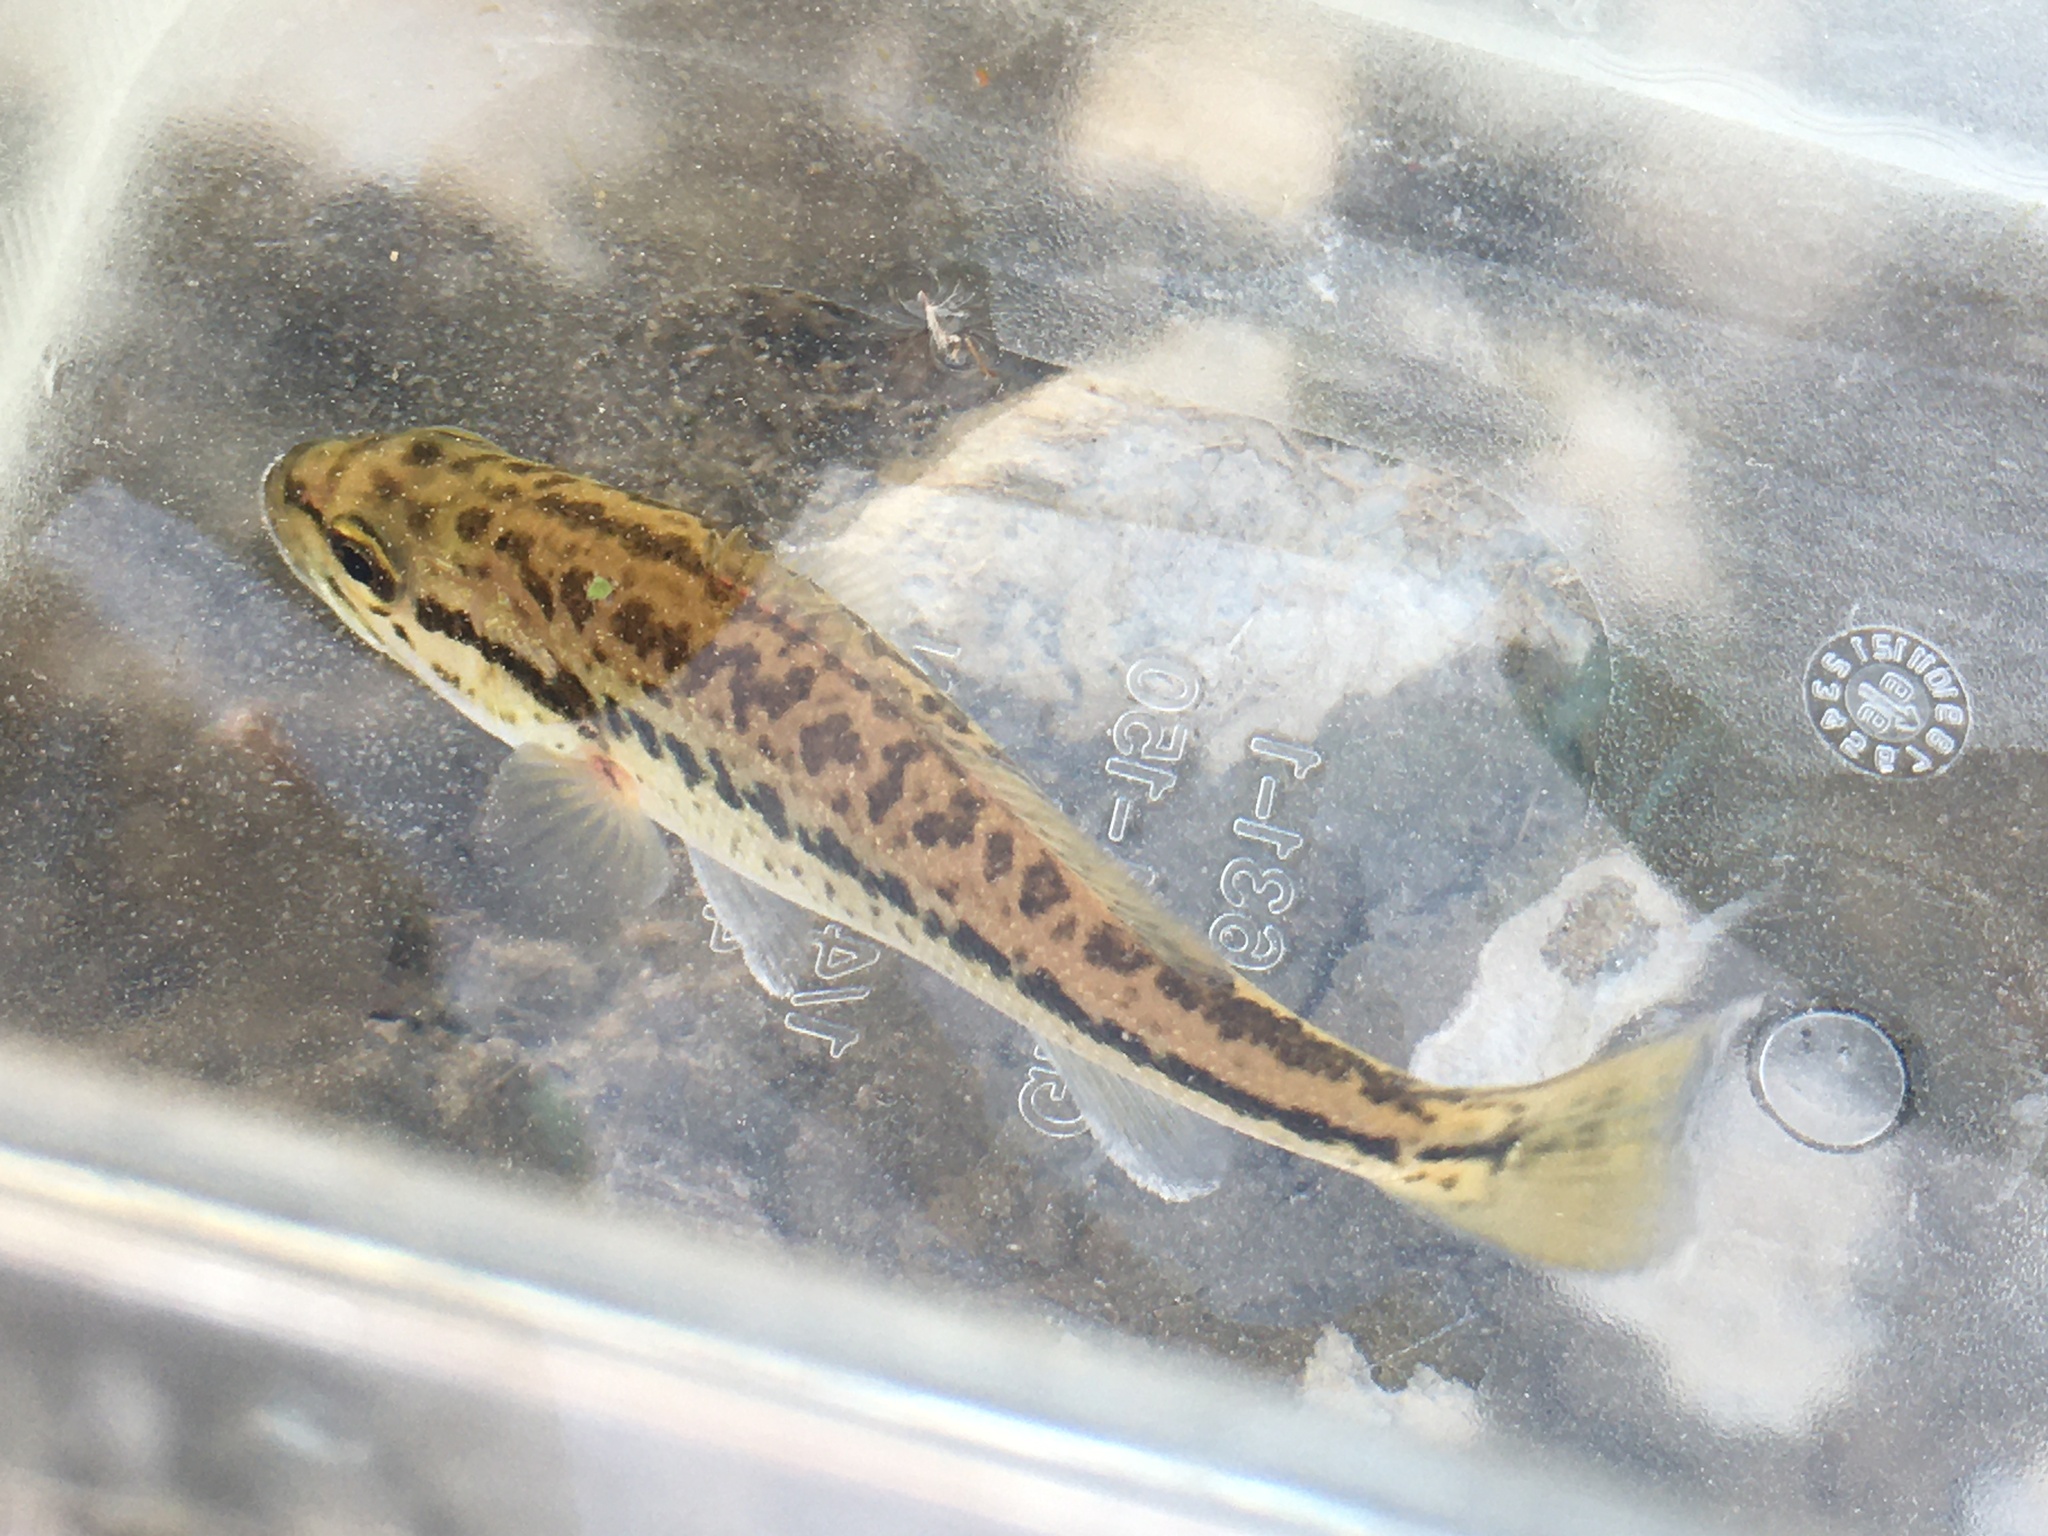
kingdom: Animalia
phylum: Chordata
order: Perciformes
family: Centrarchidae
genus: Micropterus
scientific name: Micropterus
